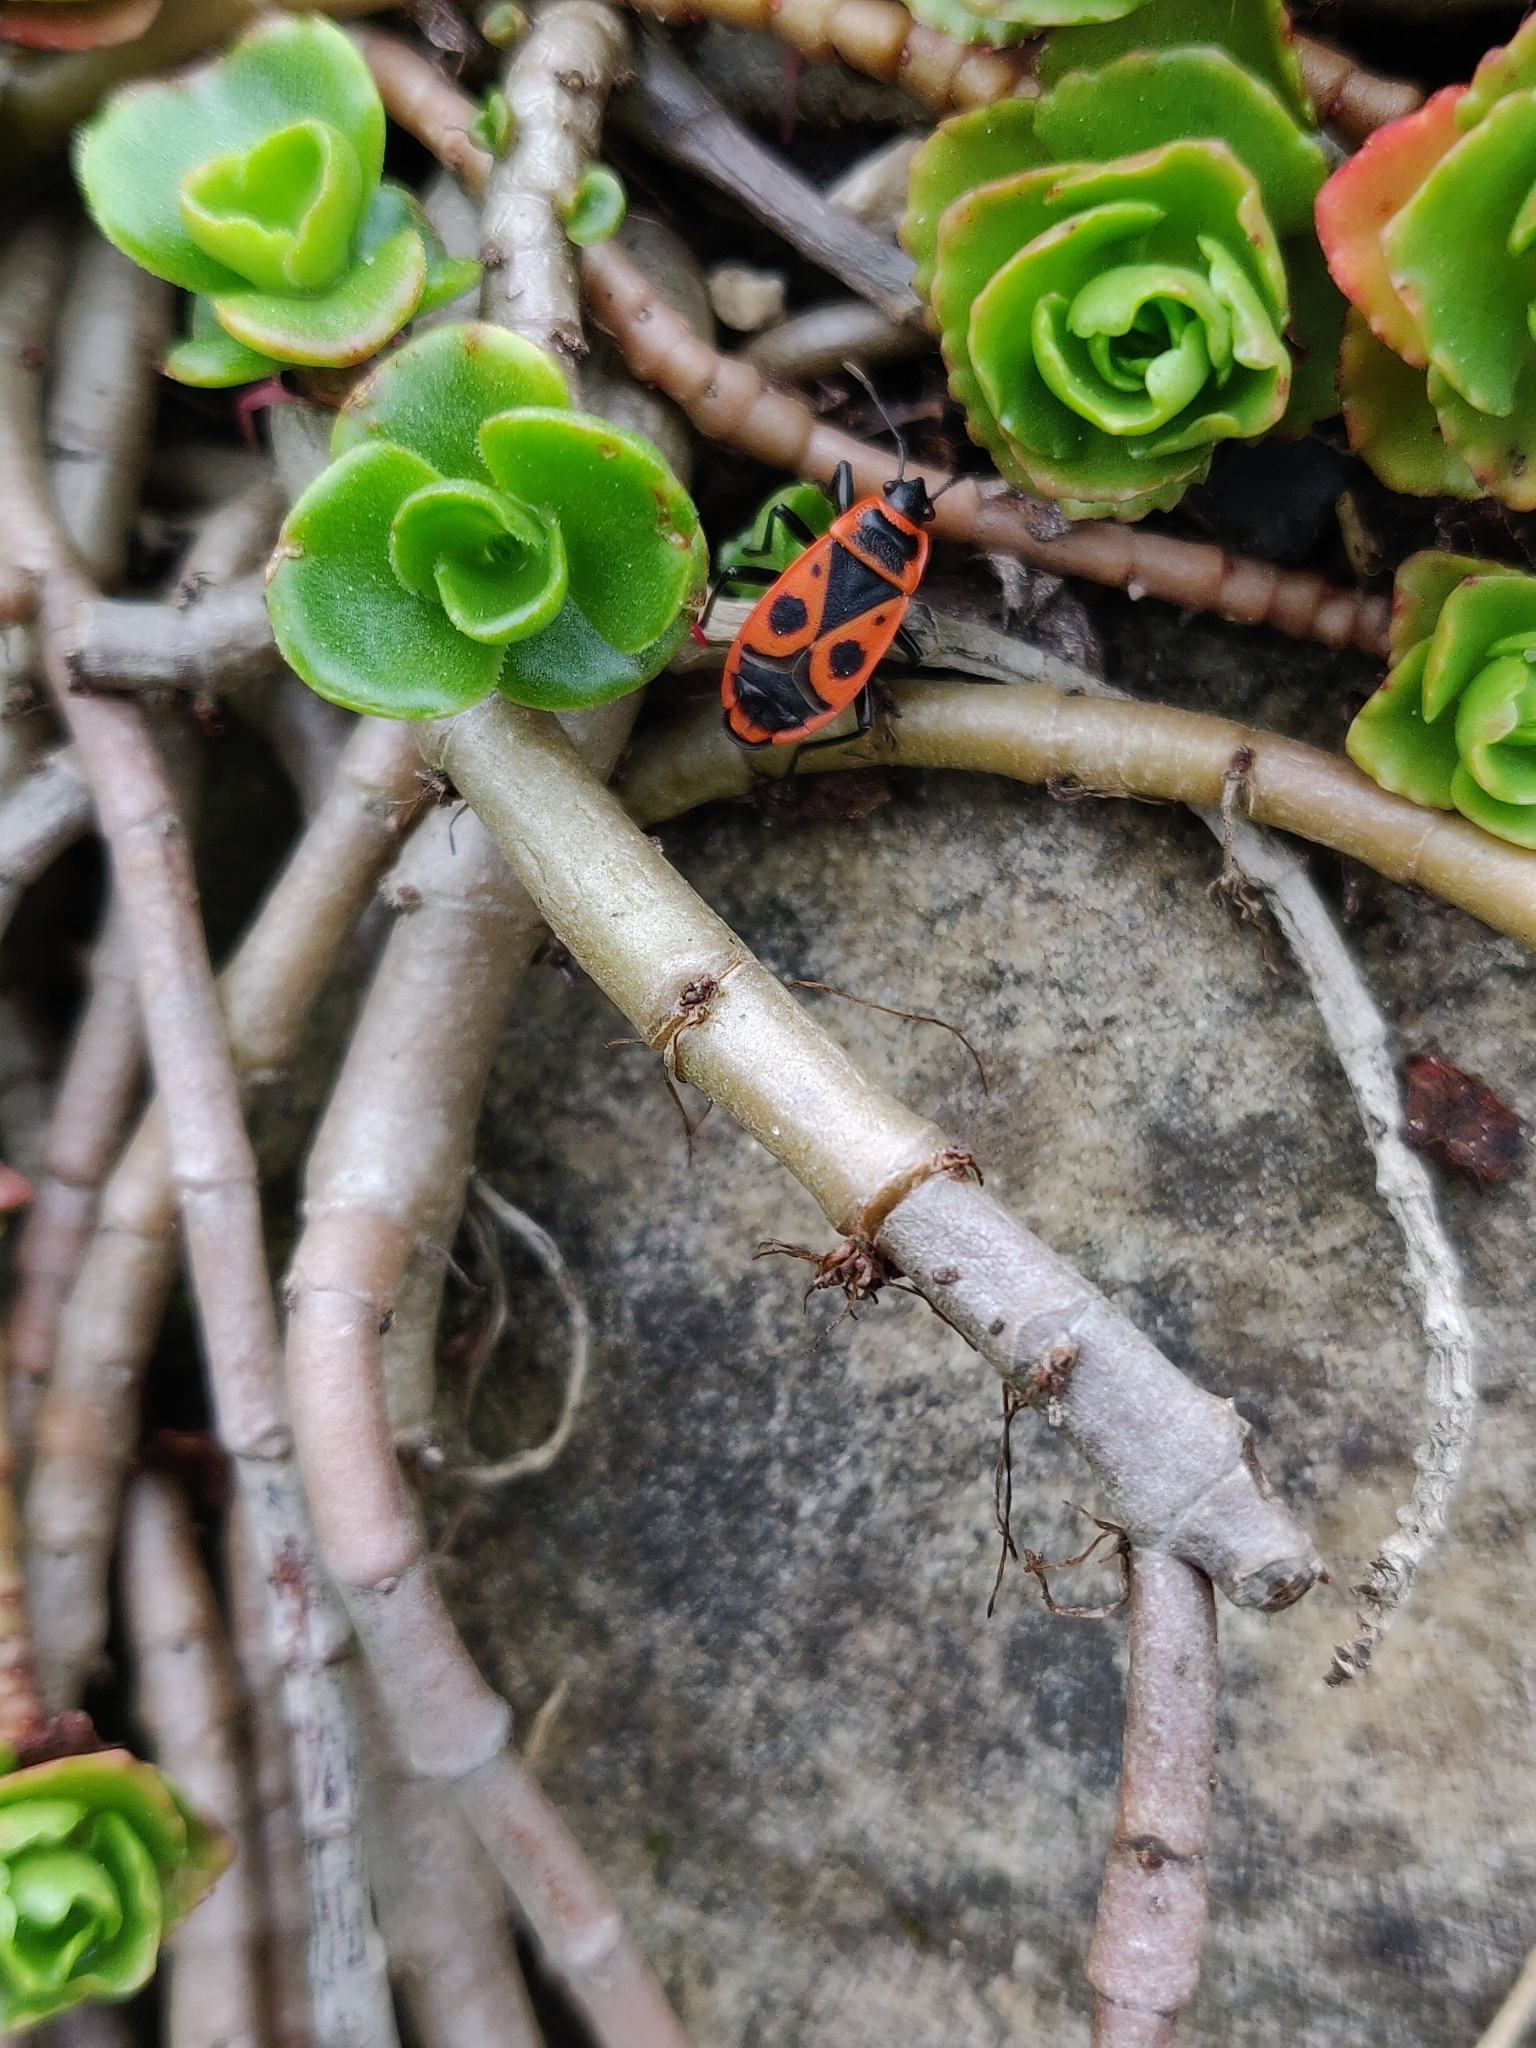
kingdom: Animalia
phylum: Arthropoda
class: Insecta
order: Hemiptera
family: Pyrrhocoridae
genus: Pyrrhocoris
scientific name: Pyrrhocoris apterus
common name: Firebug
